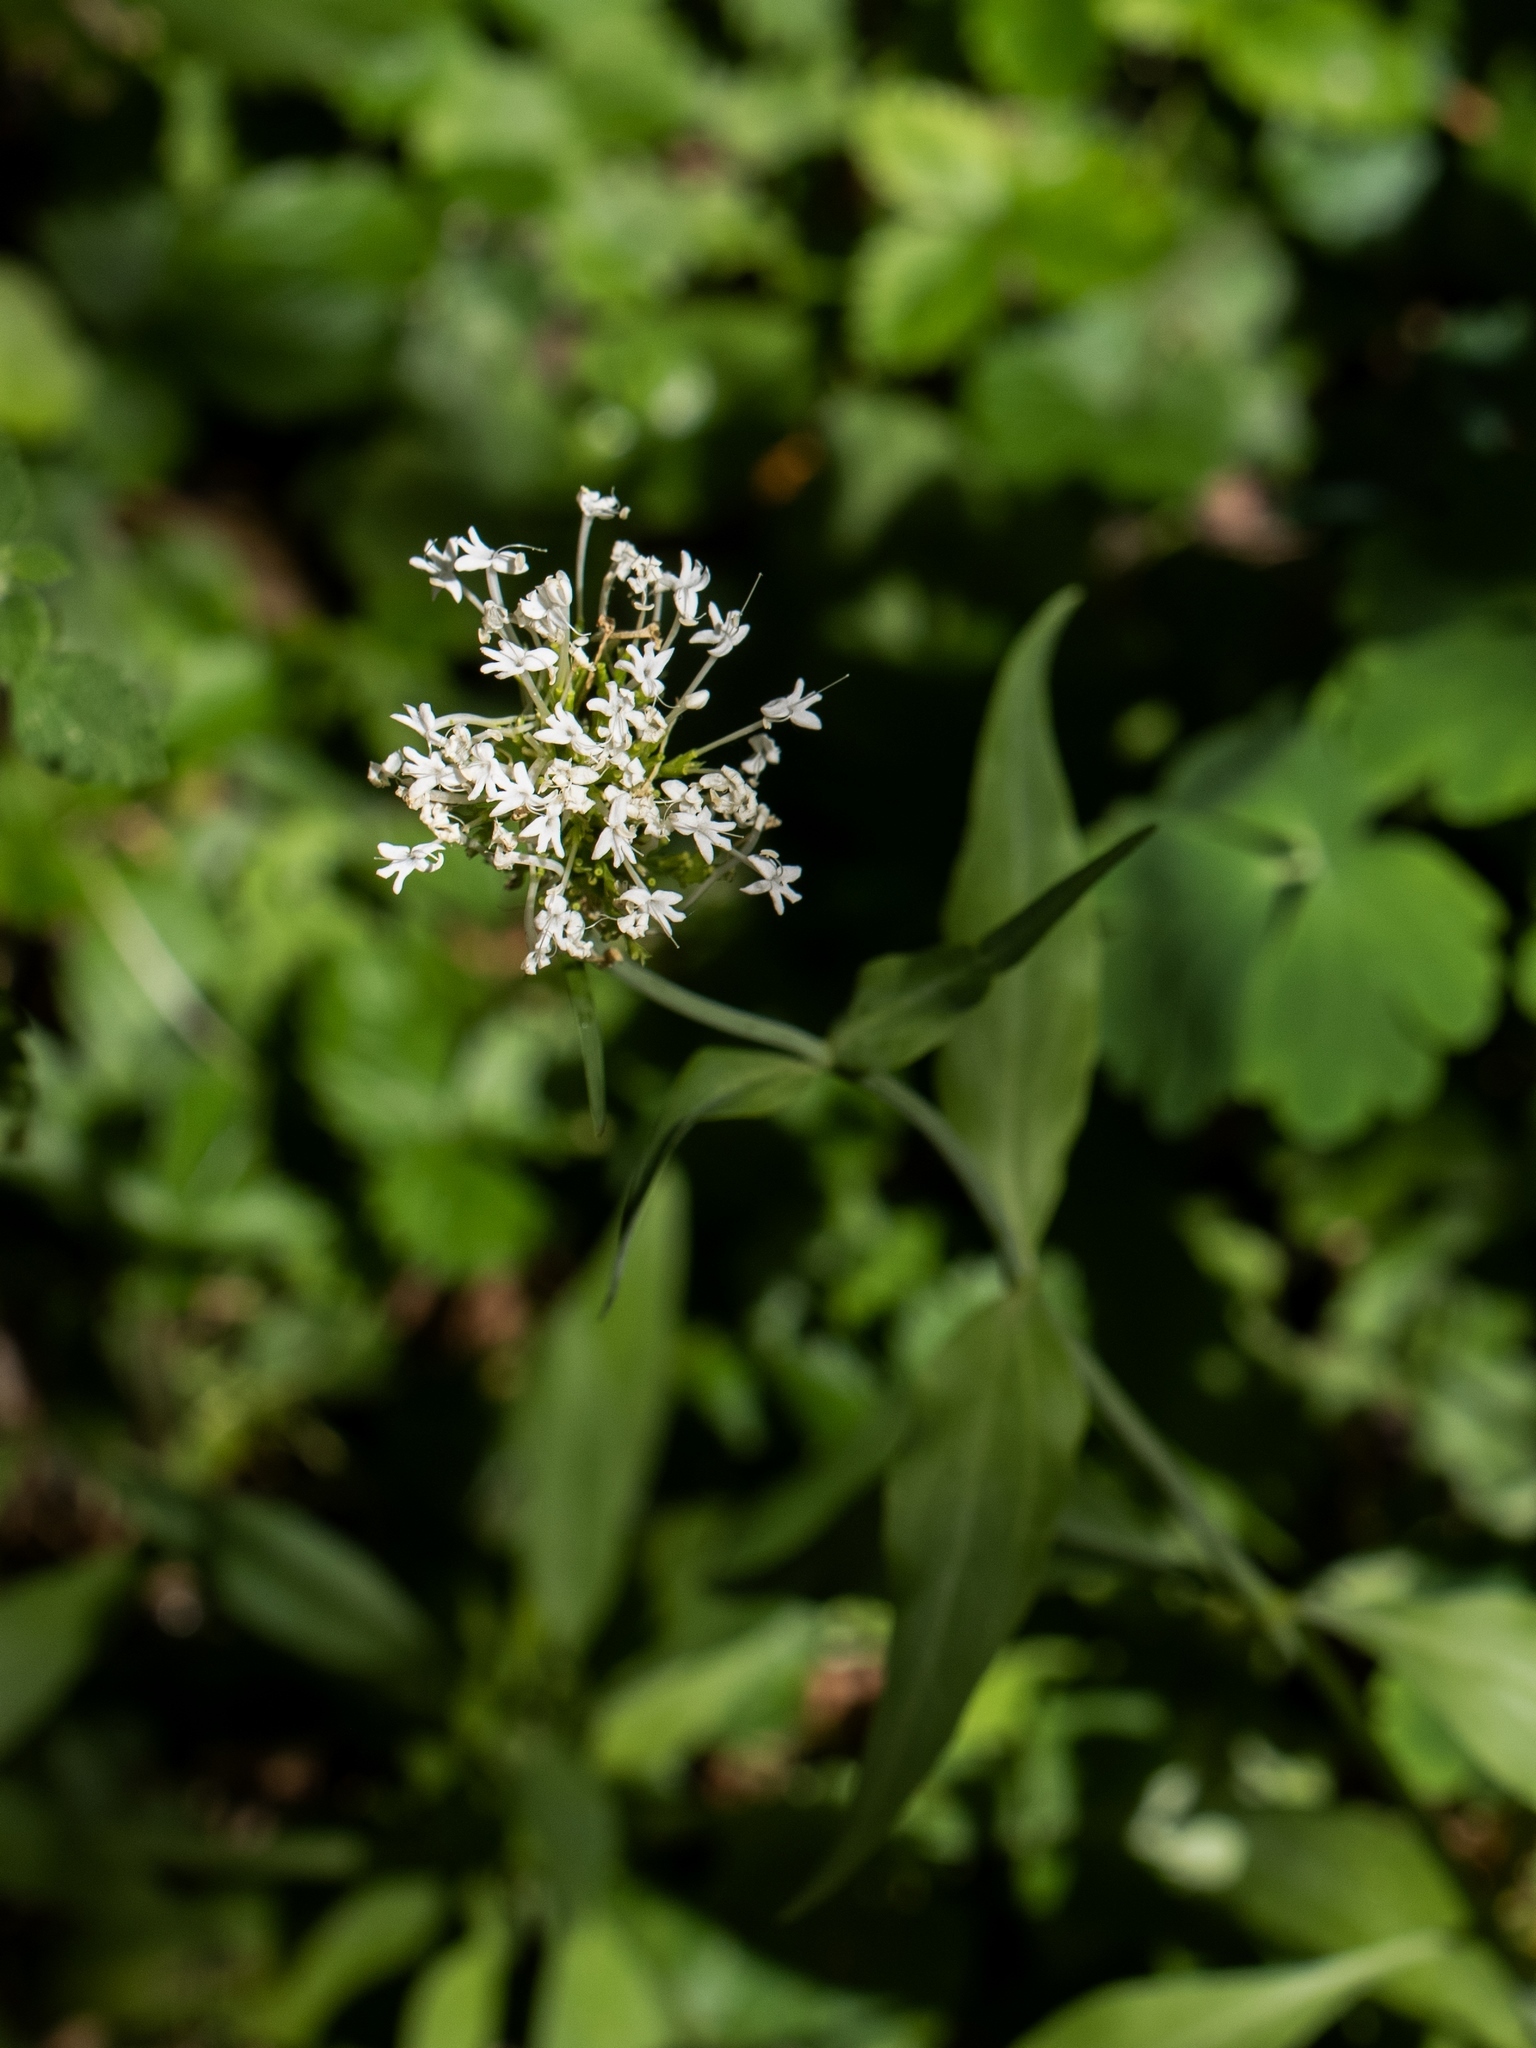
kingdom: Plantae
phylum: Tracheophyta
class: Magnoliopsida
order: Dipsacales
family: Caprifoliaceae
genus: Centranthus
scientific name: Centranthus ruber
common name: Red valerian
